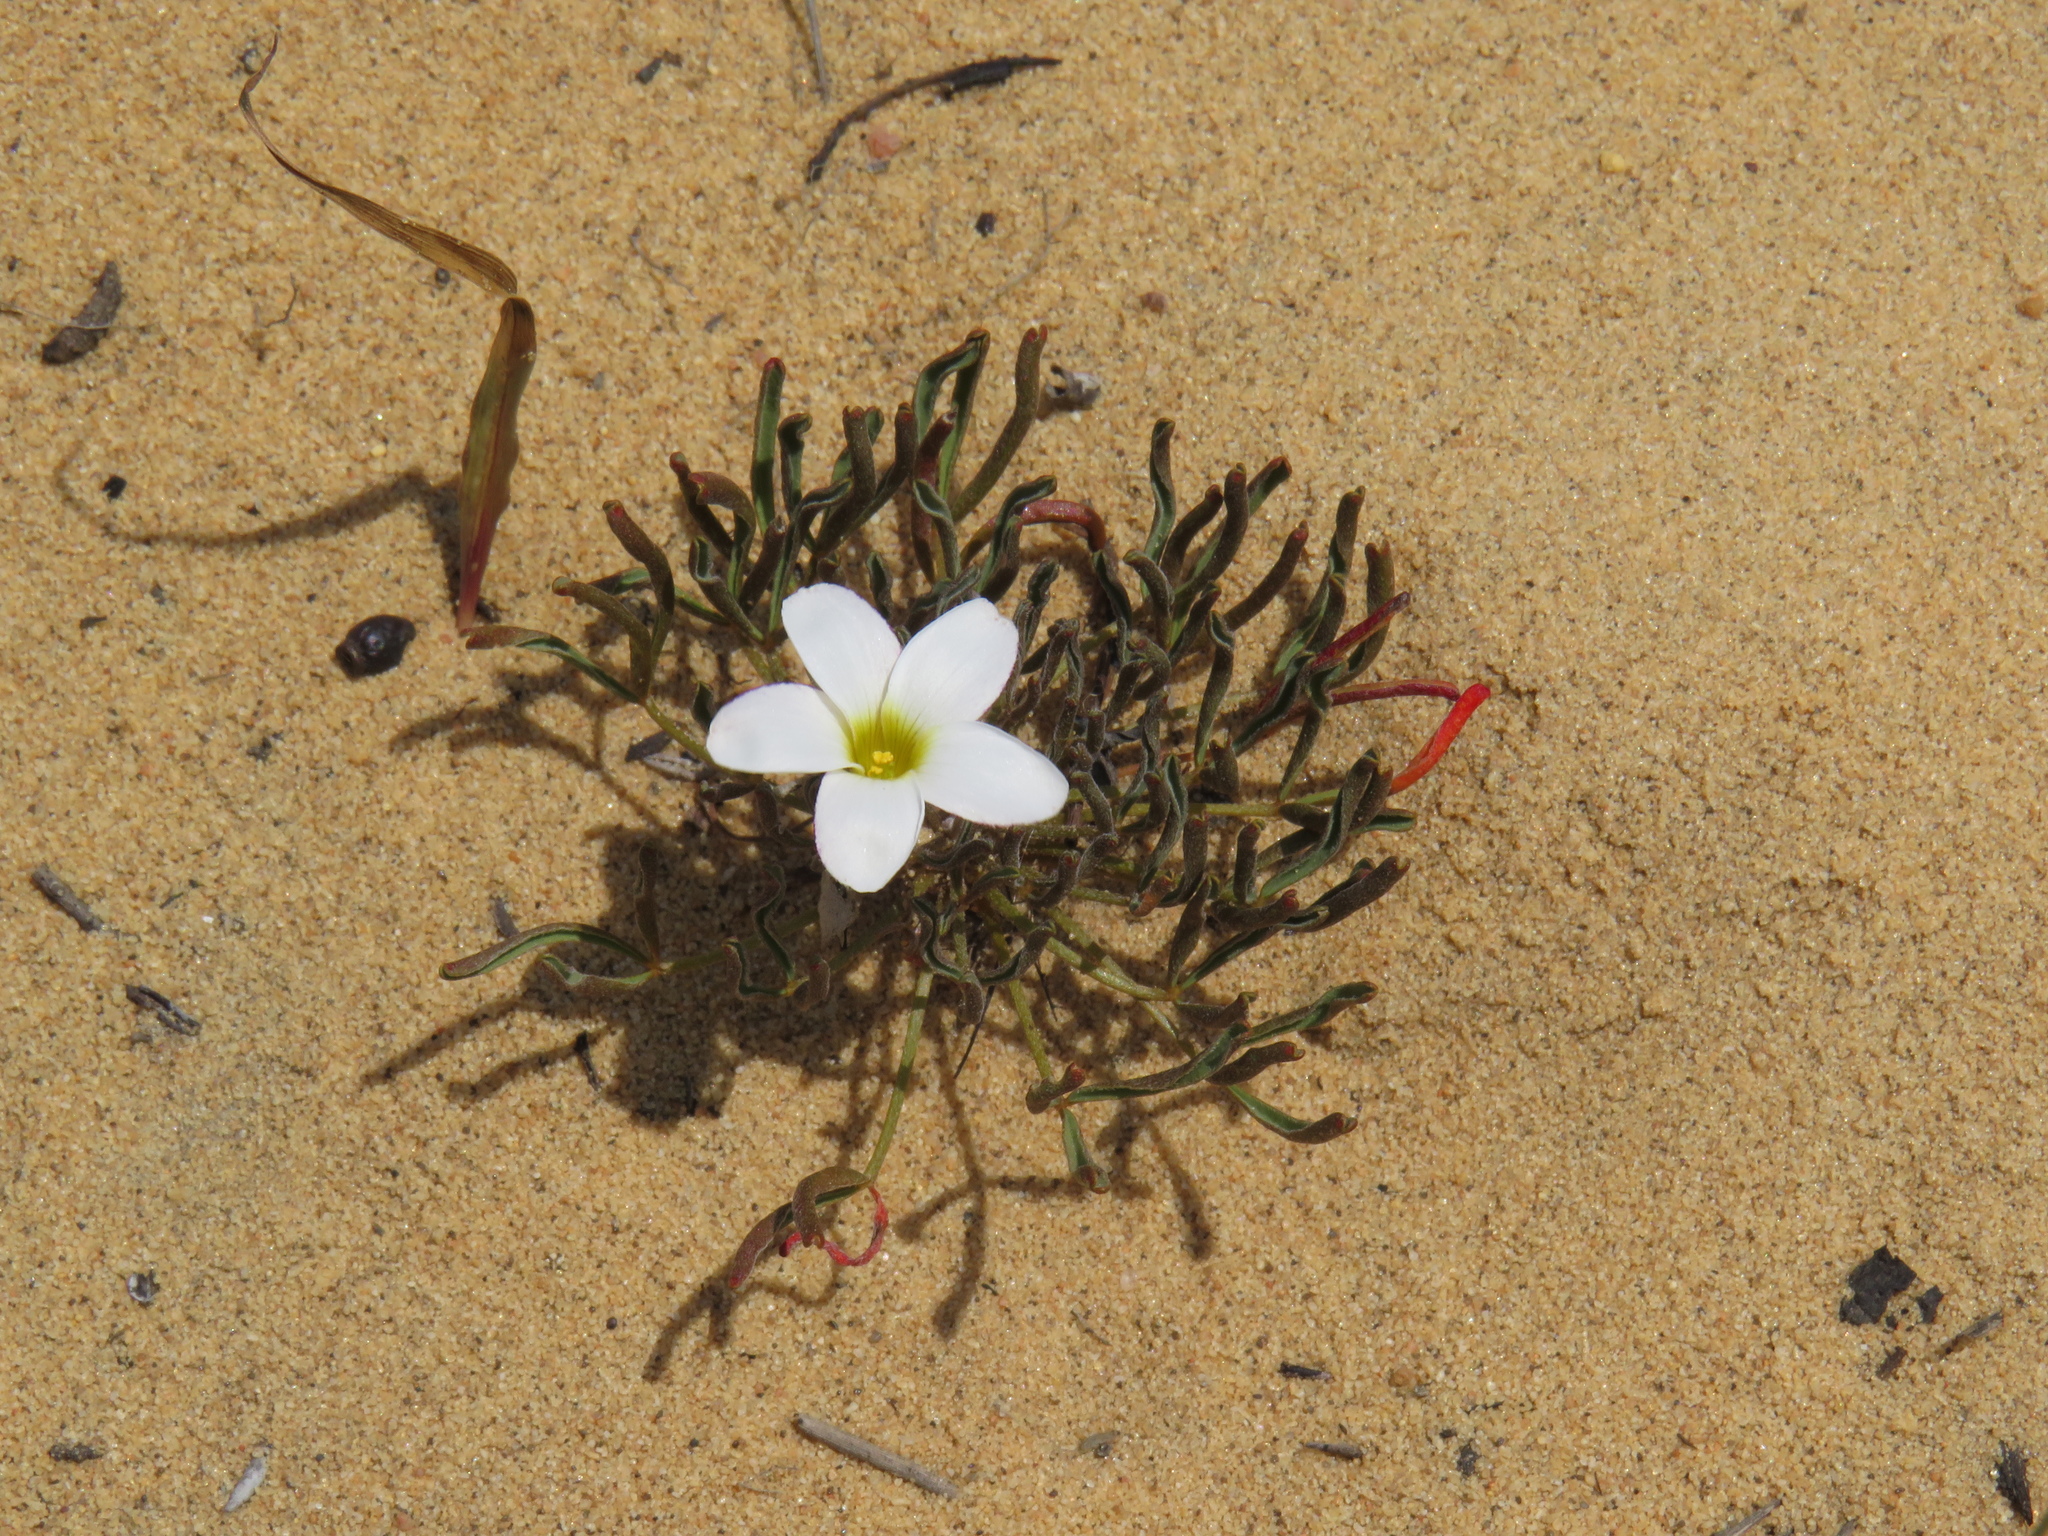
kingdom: Plantae
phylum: Tracheophyta
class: Magnoliopsida
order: Oxalidales
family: Oxalidaceae
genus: Oxalis
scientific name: Oxalis versicolor
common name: Peppermint rock oxalis
